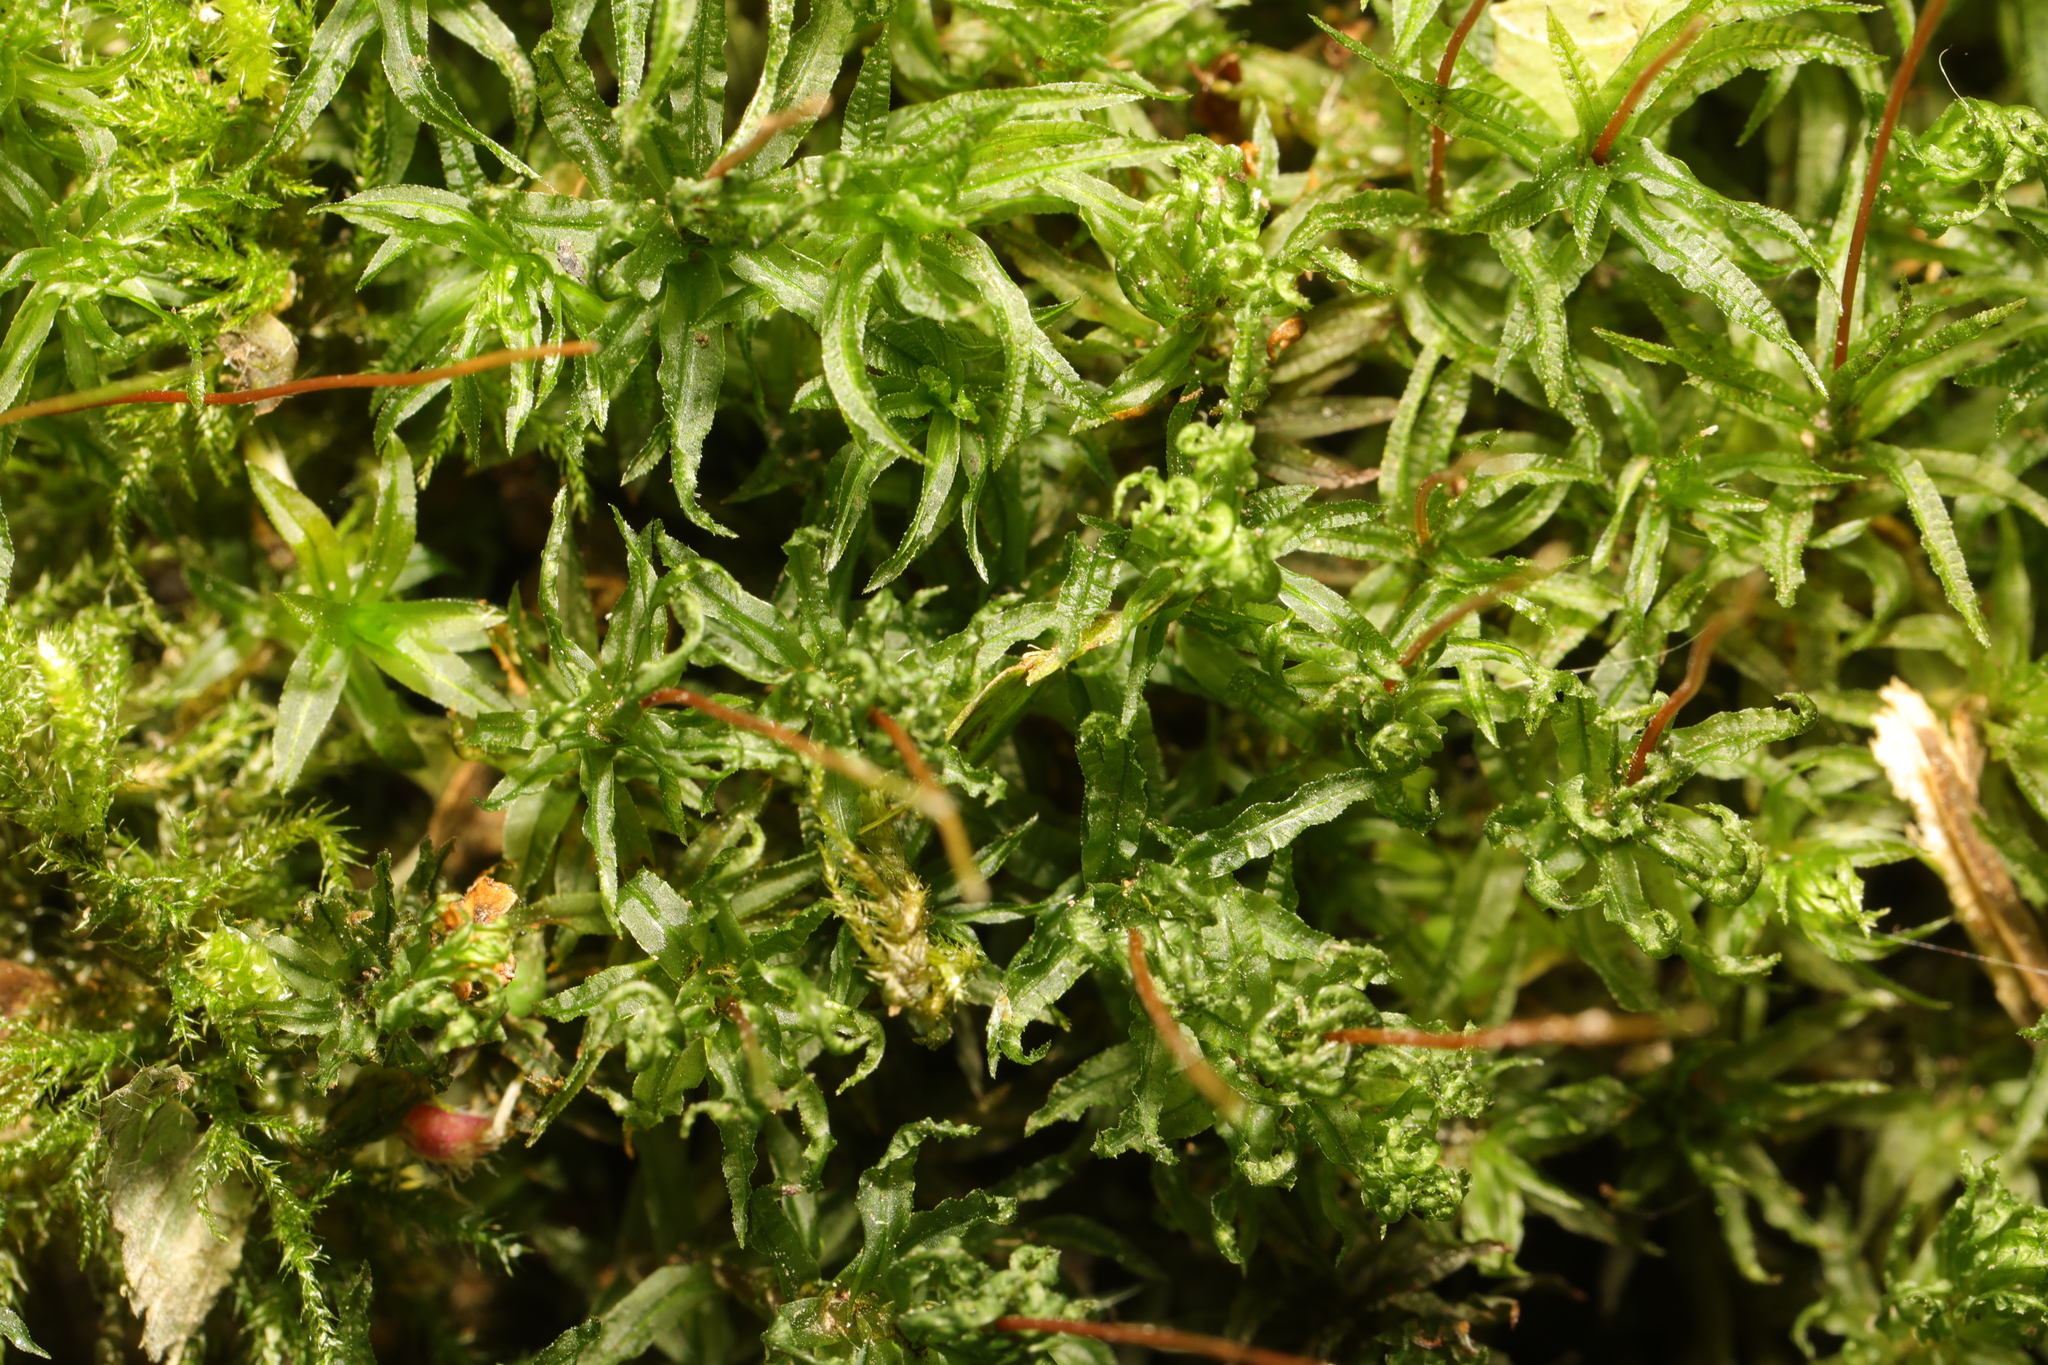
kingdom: Plantae
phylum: Bryophyta
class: Polytrichopsida
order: Polytrichales
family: Polytrichaceae
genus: Atrichum
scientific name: Atrichum undulatum
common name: Common smoothcap
